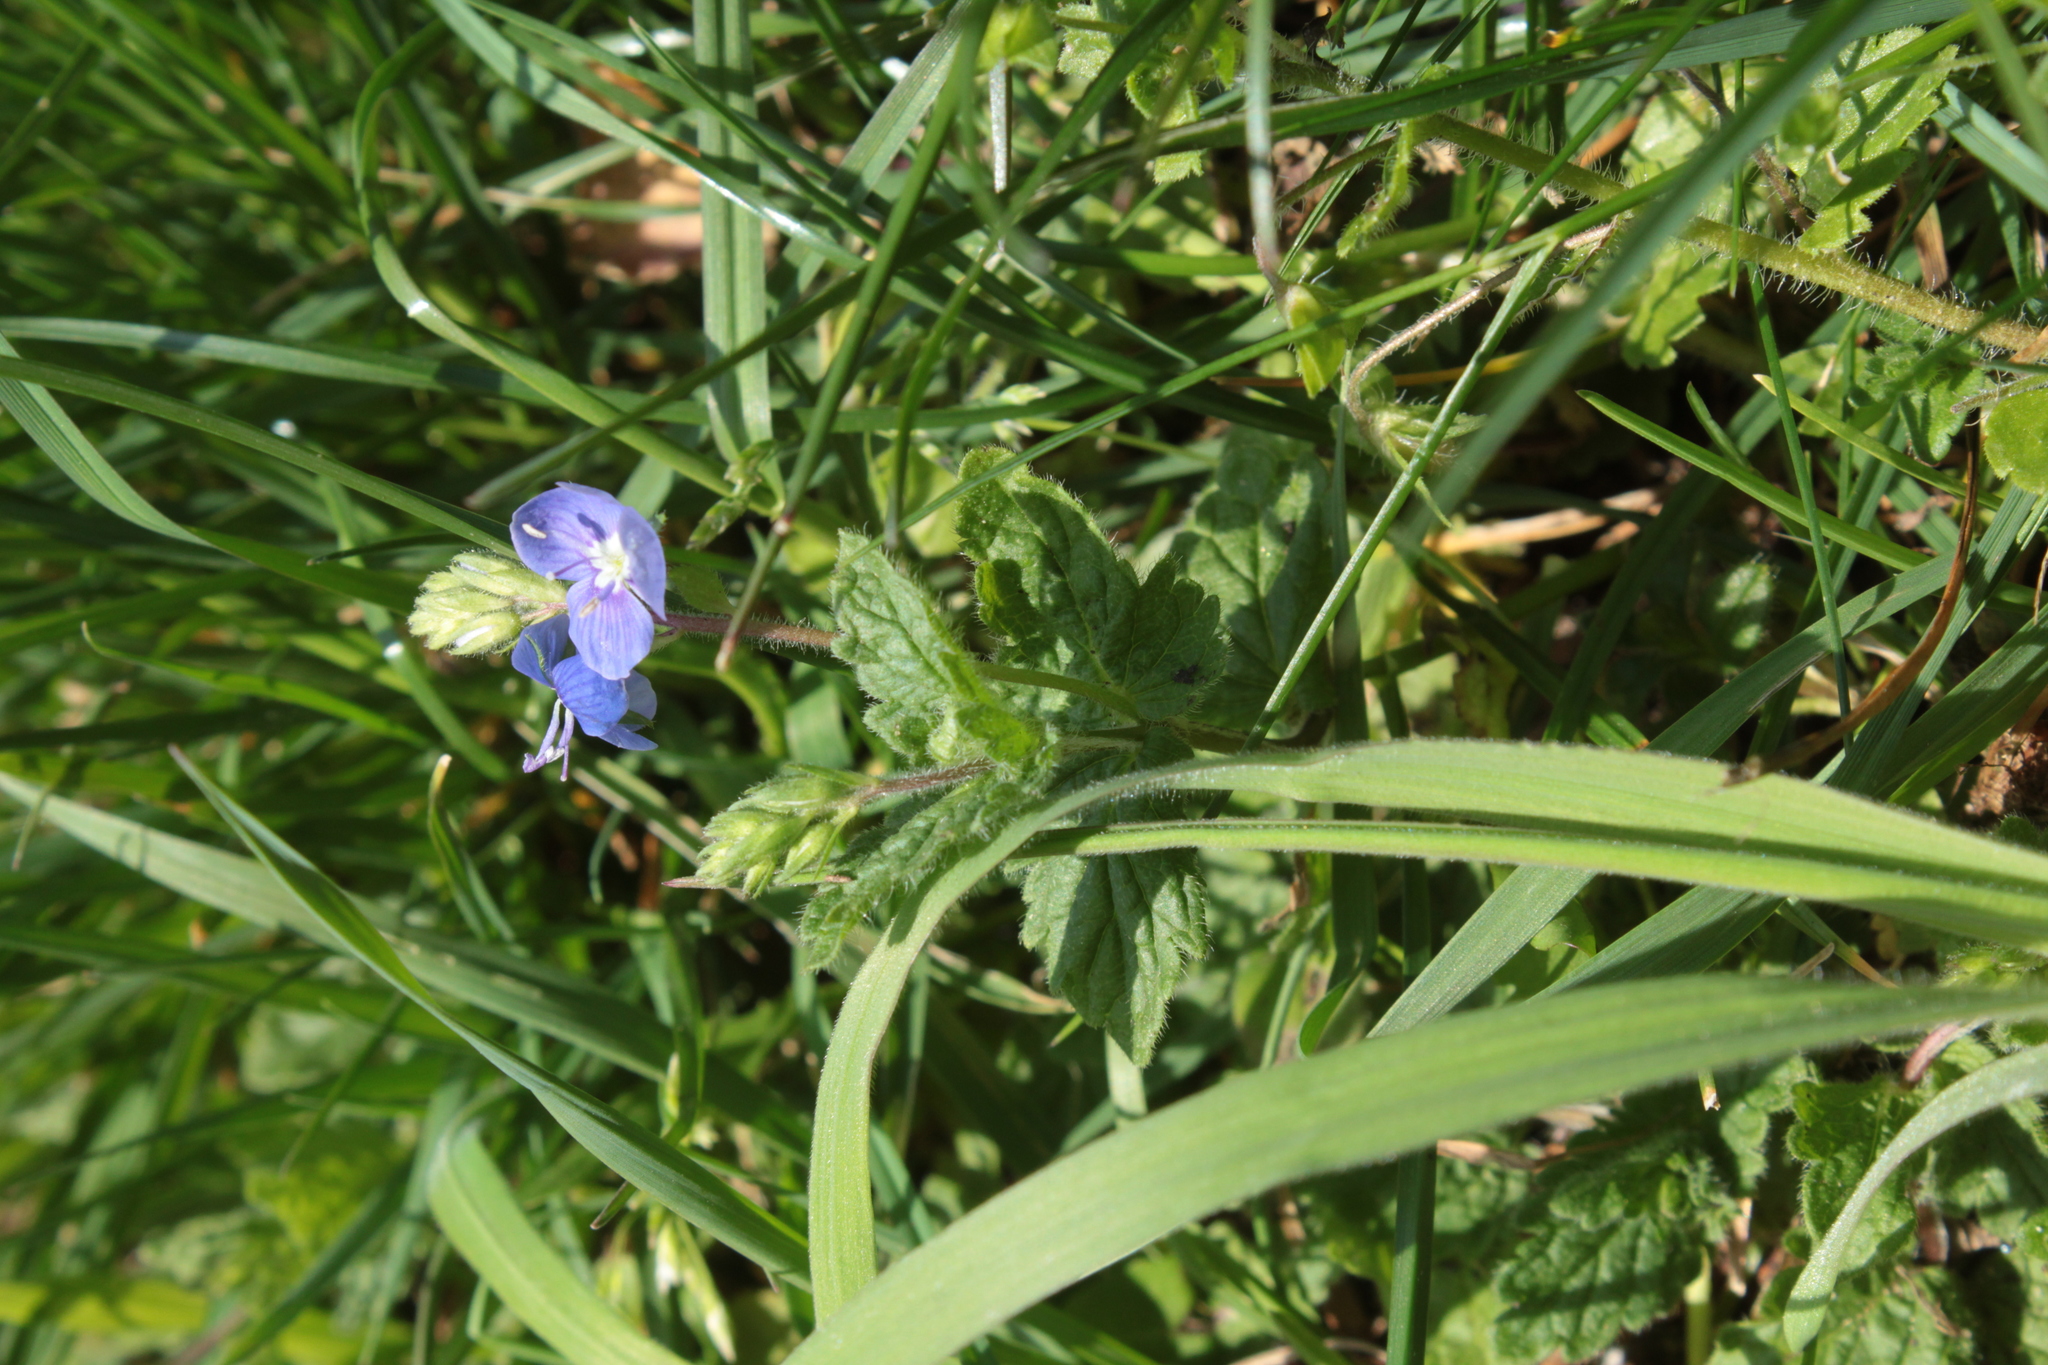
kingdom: Plantae
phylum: Tracheophyta
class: Magnoliopsida
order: Lamiales
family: Plantaginaceae
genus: Veronica
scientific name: Veronica chamaedrys
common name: Germander speedwell
